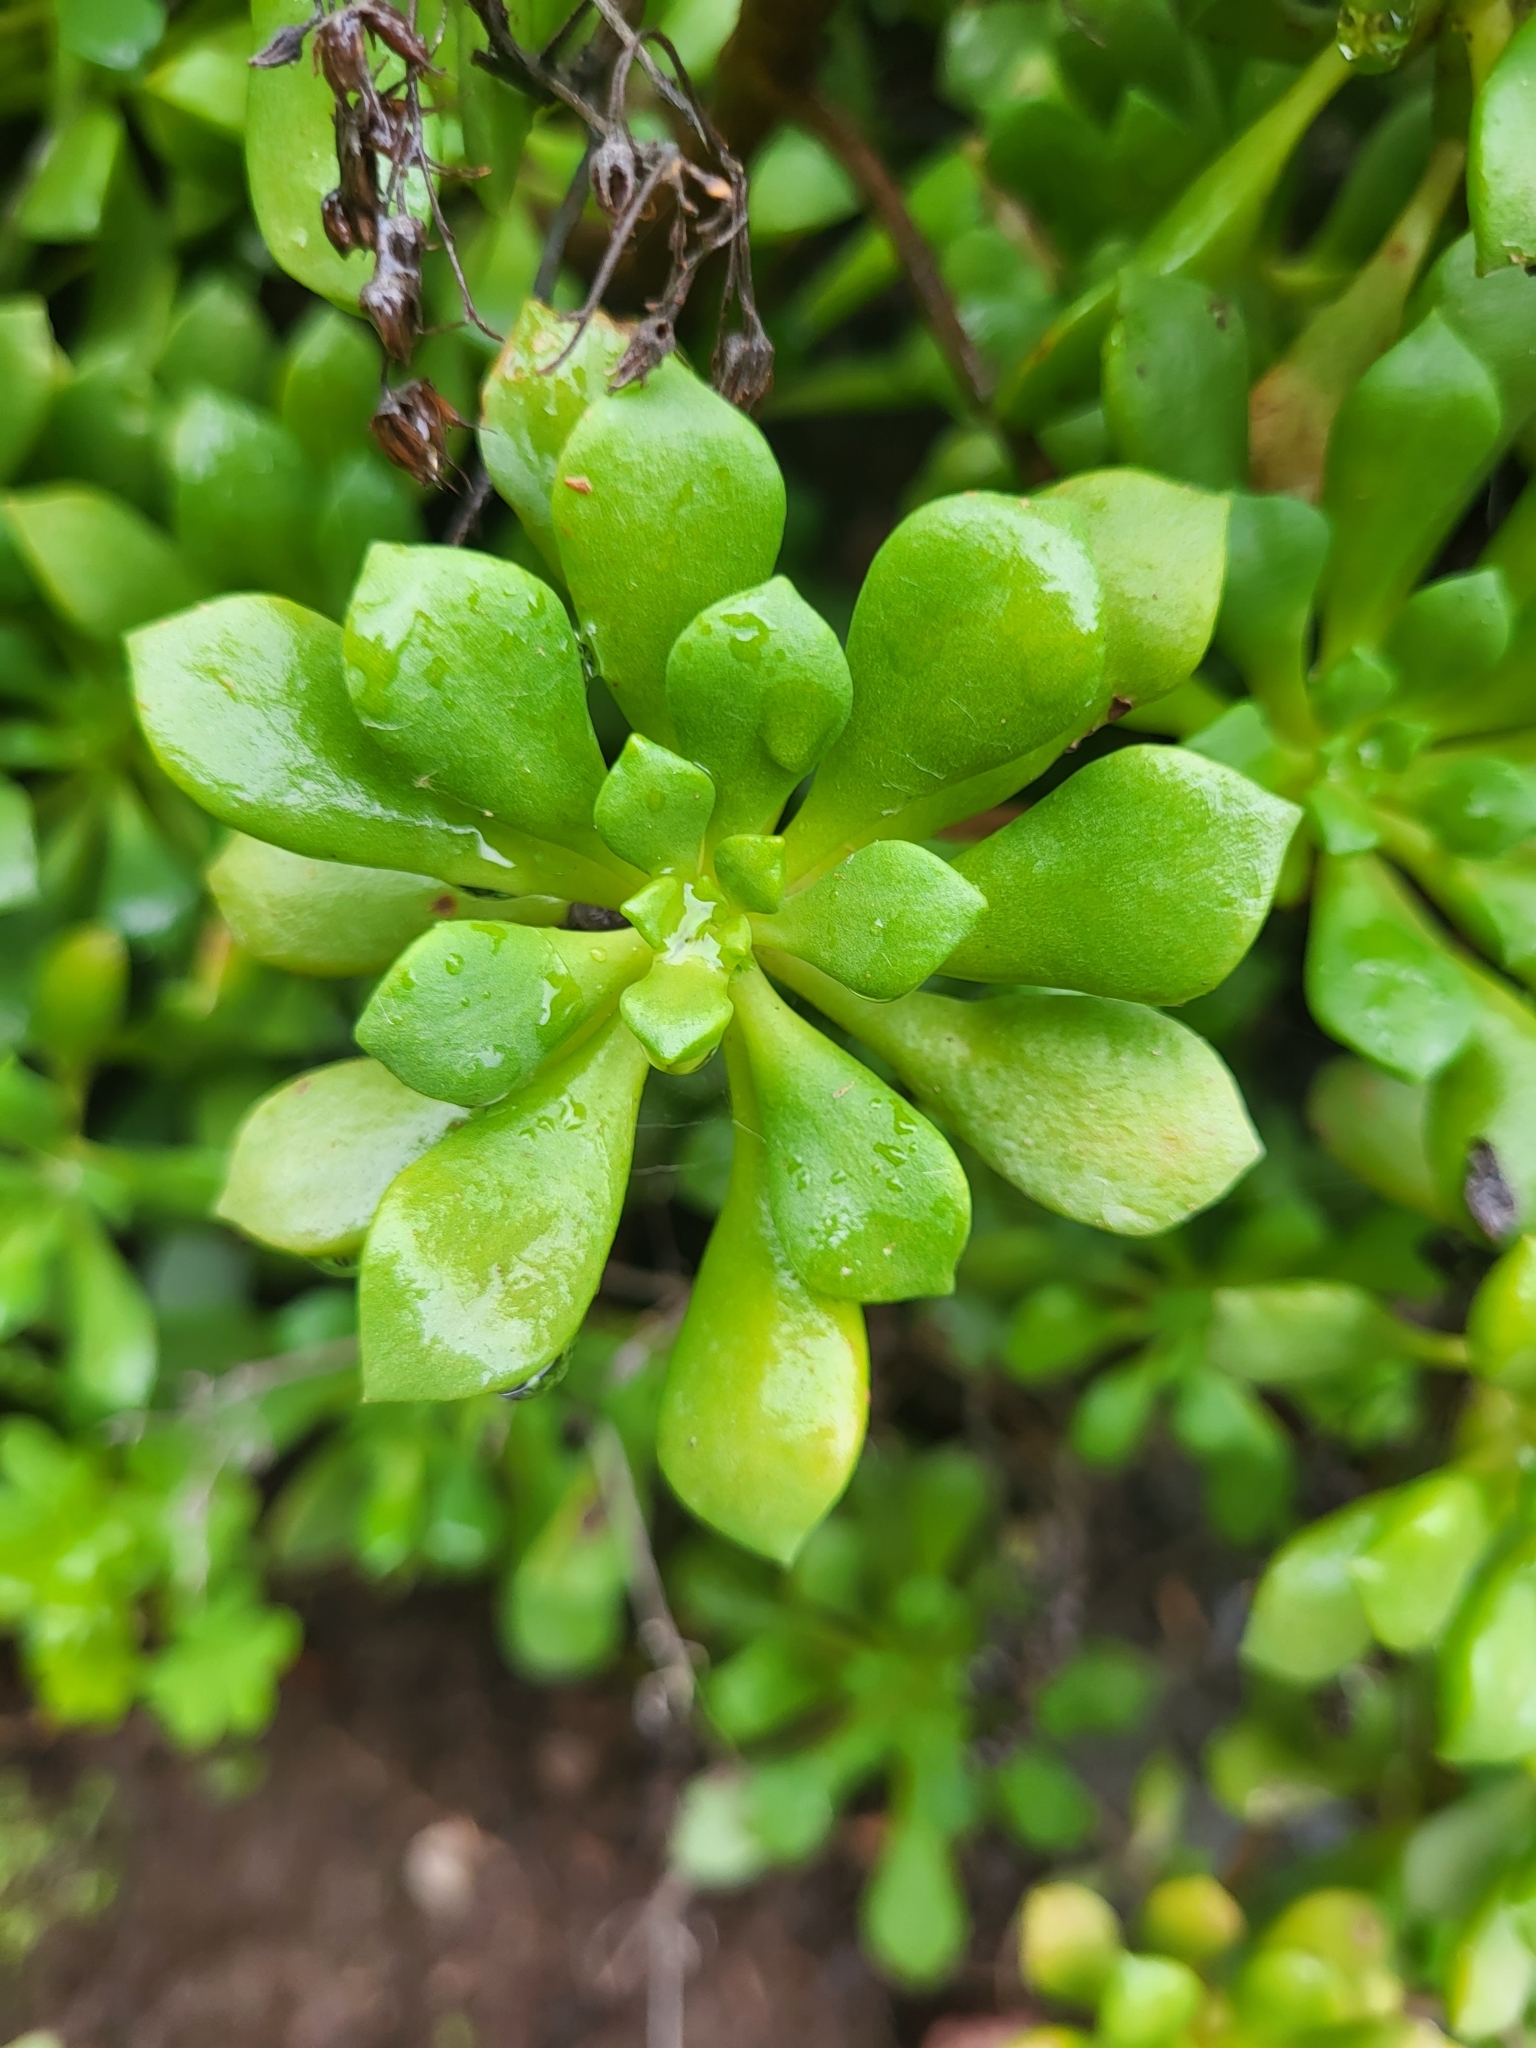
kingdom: Plantae
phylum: Tracheophyta
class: Magnoliopsida
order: Saxifragales
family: Crassulaceae
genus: Aeonium
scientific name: Aeonium lindleyi
